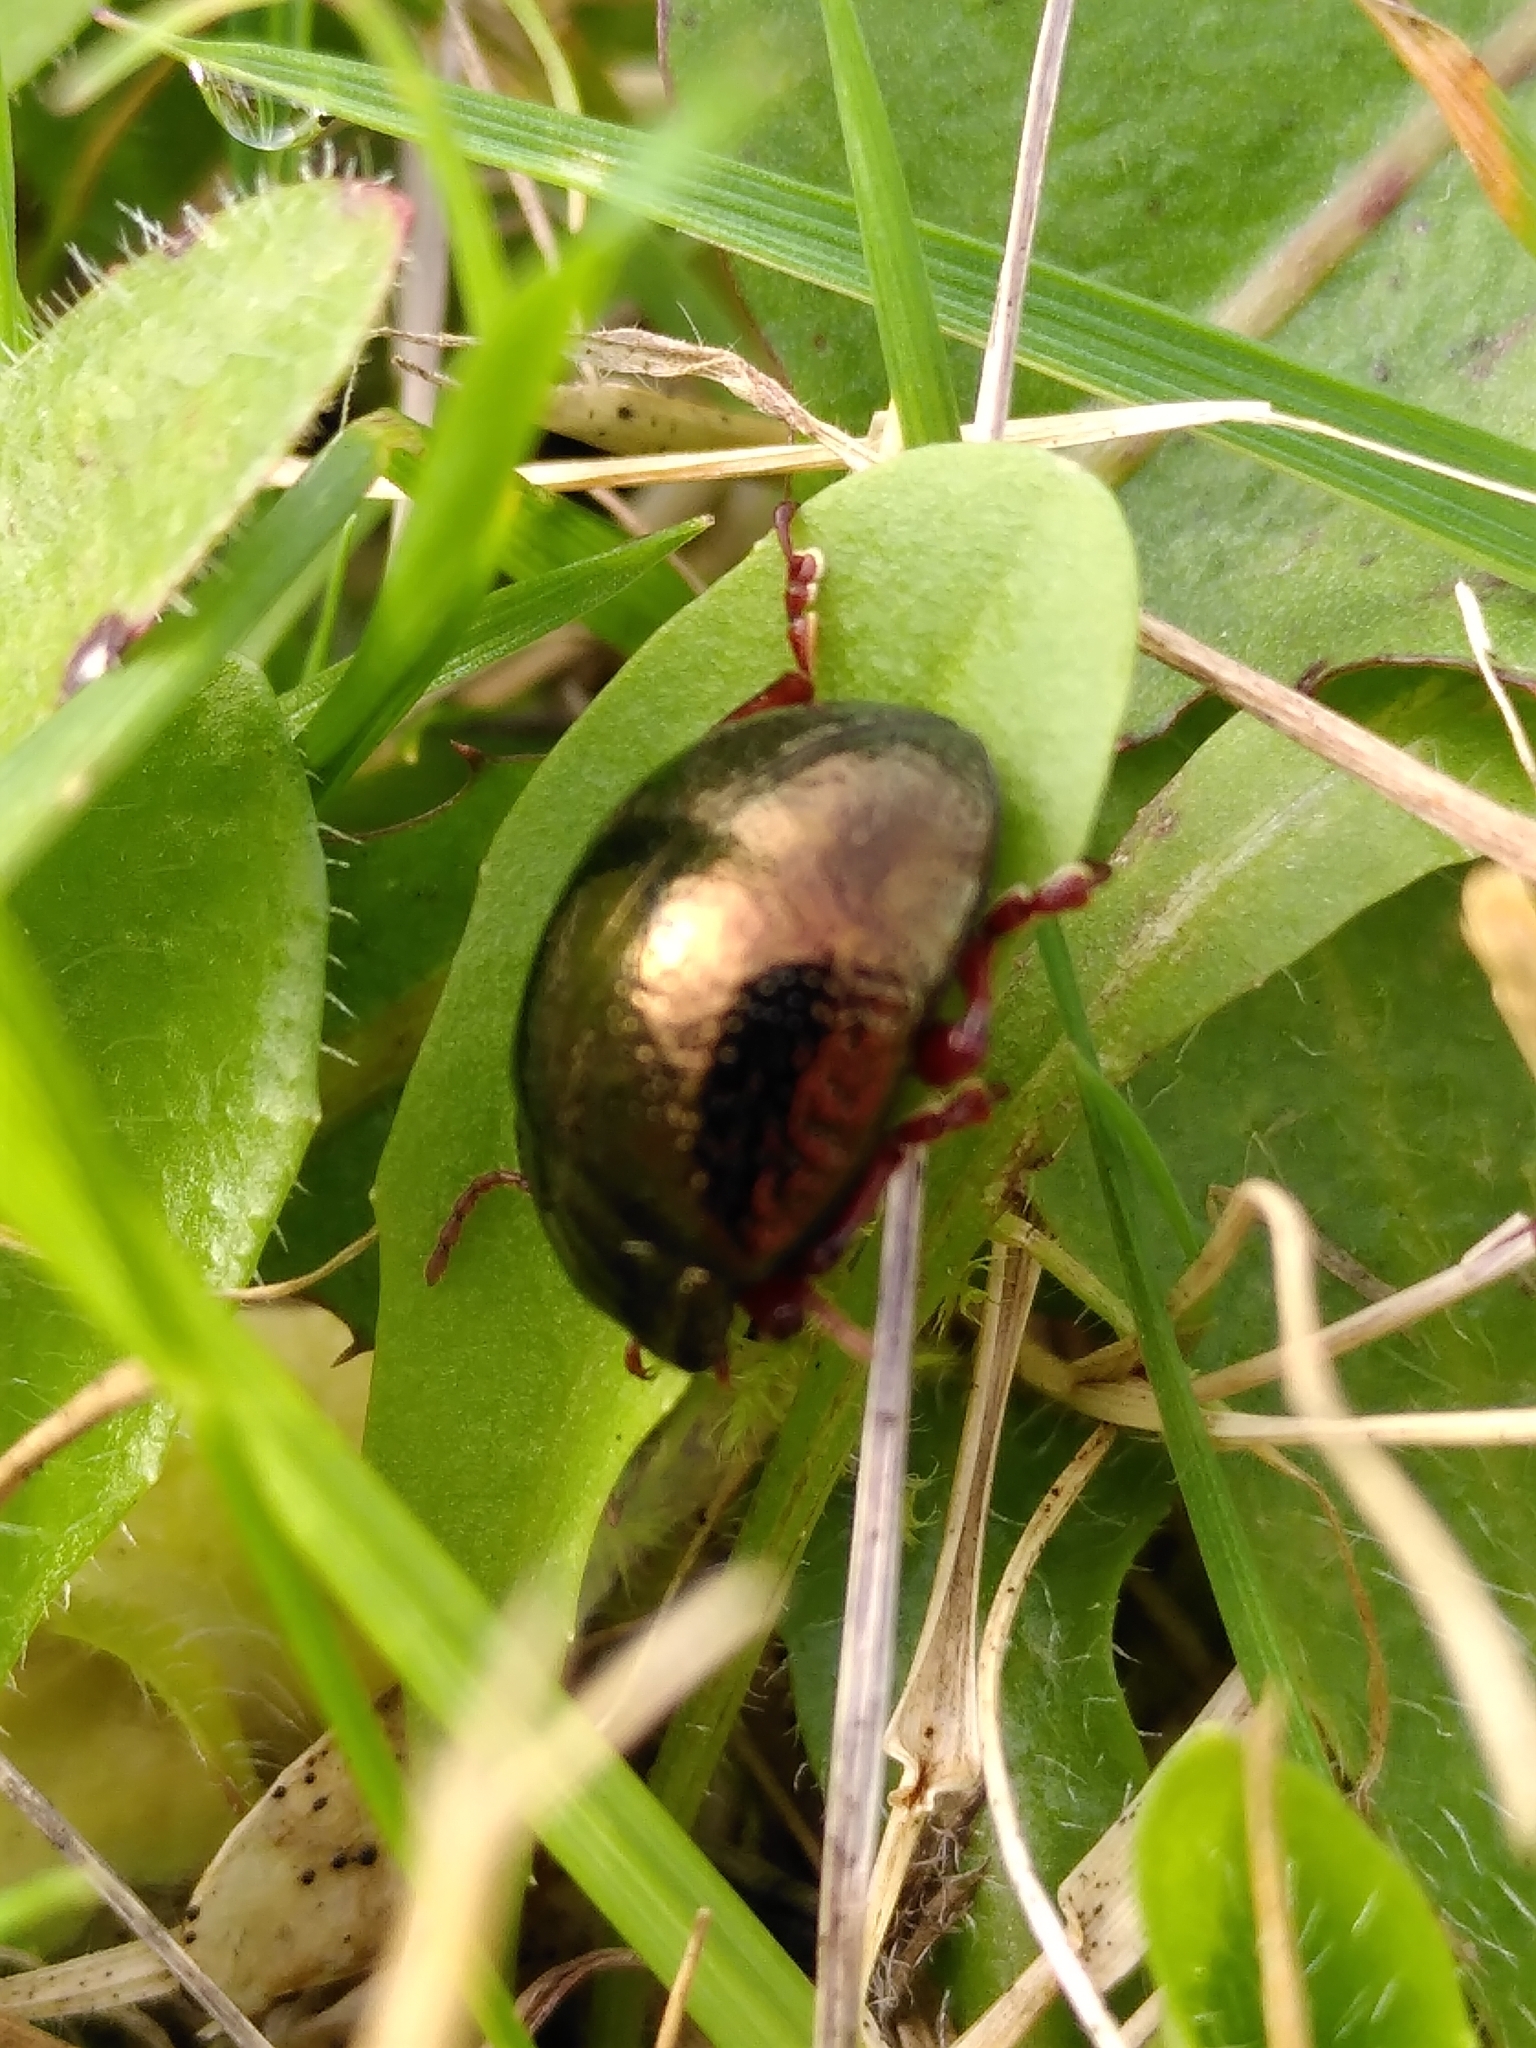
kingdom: Animalia
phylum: Arthropoda
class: Insecta
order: Coleoptera
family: Chrysomelidae
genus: Chrysolina
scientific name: Chrysolina bankii
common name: Leaf beetle
